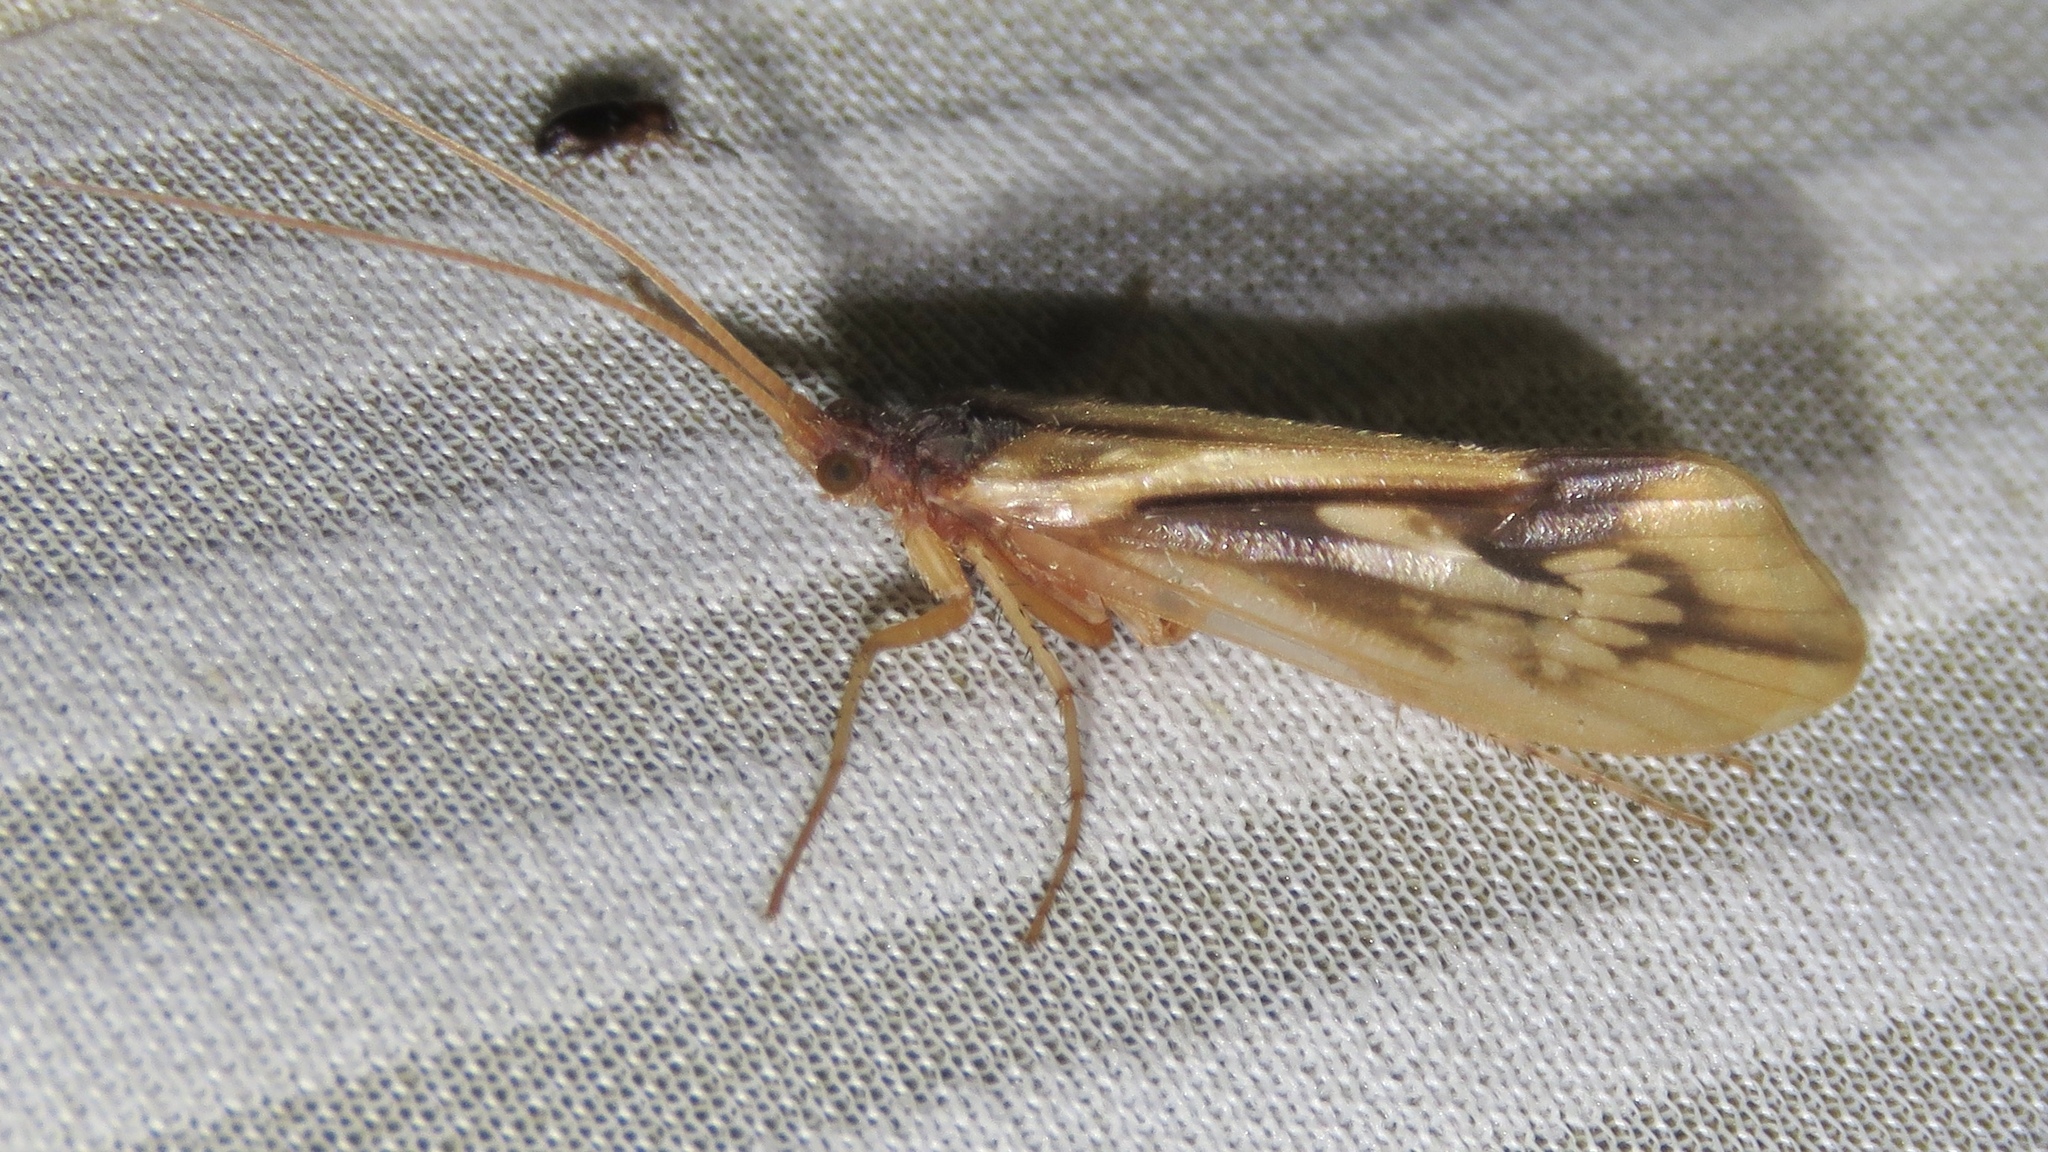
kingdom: Animalia
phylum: Arthropoda
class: Insecta
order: Trichoptera
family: Limnephilidae
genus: Platycentropus
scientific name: Platycentropus radiatus
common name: Chocolate-and-cream sedge
